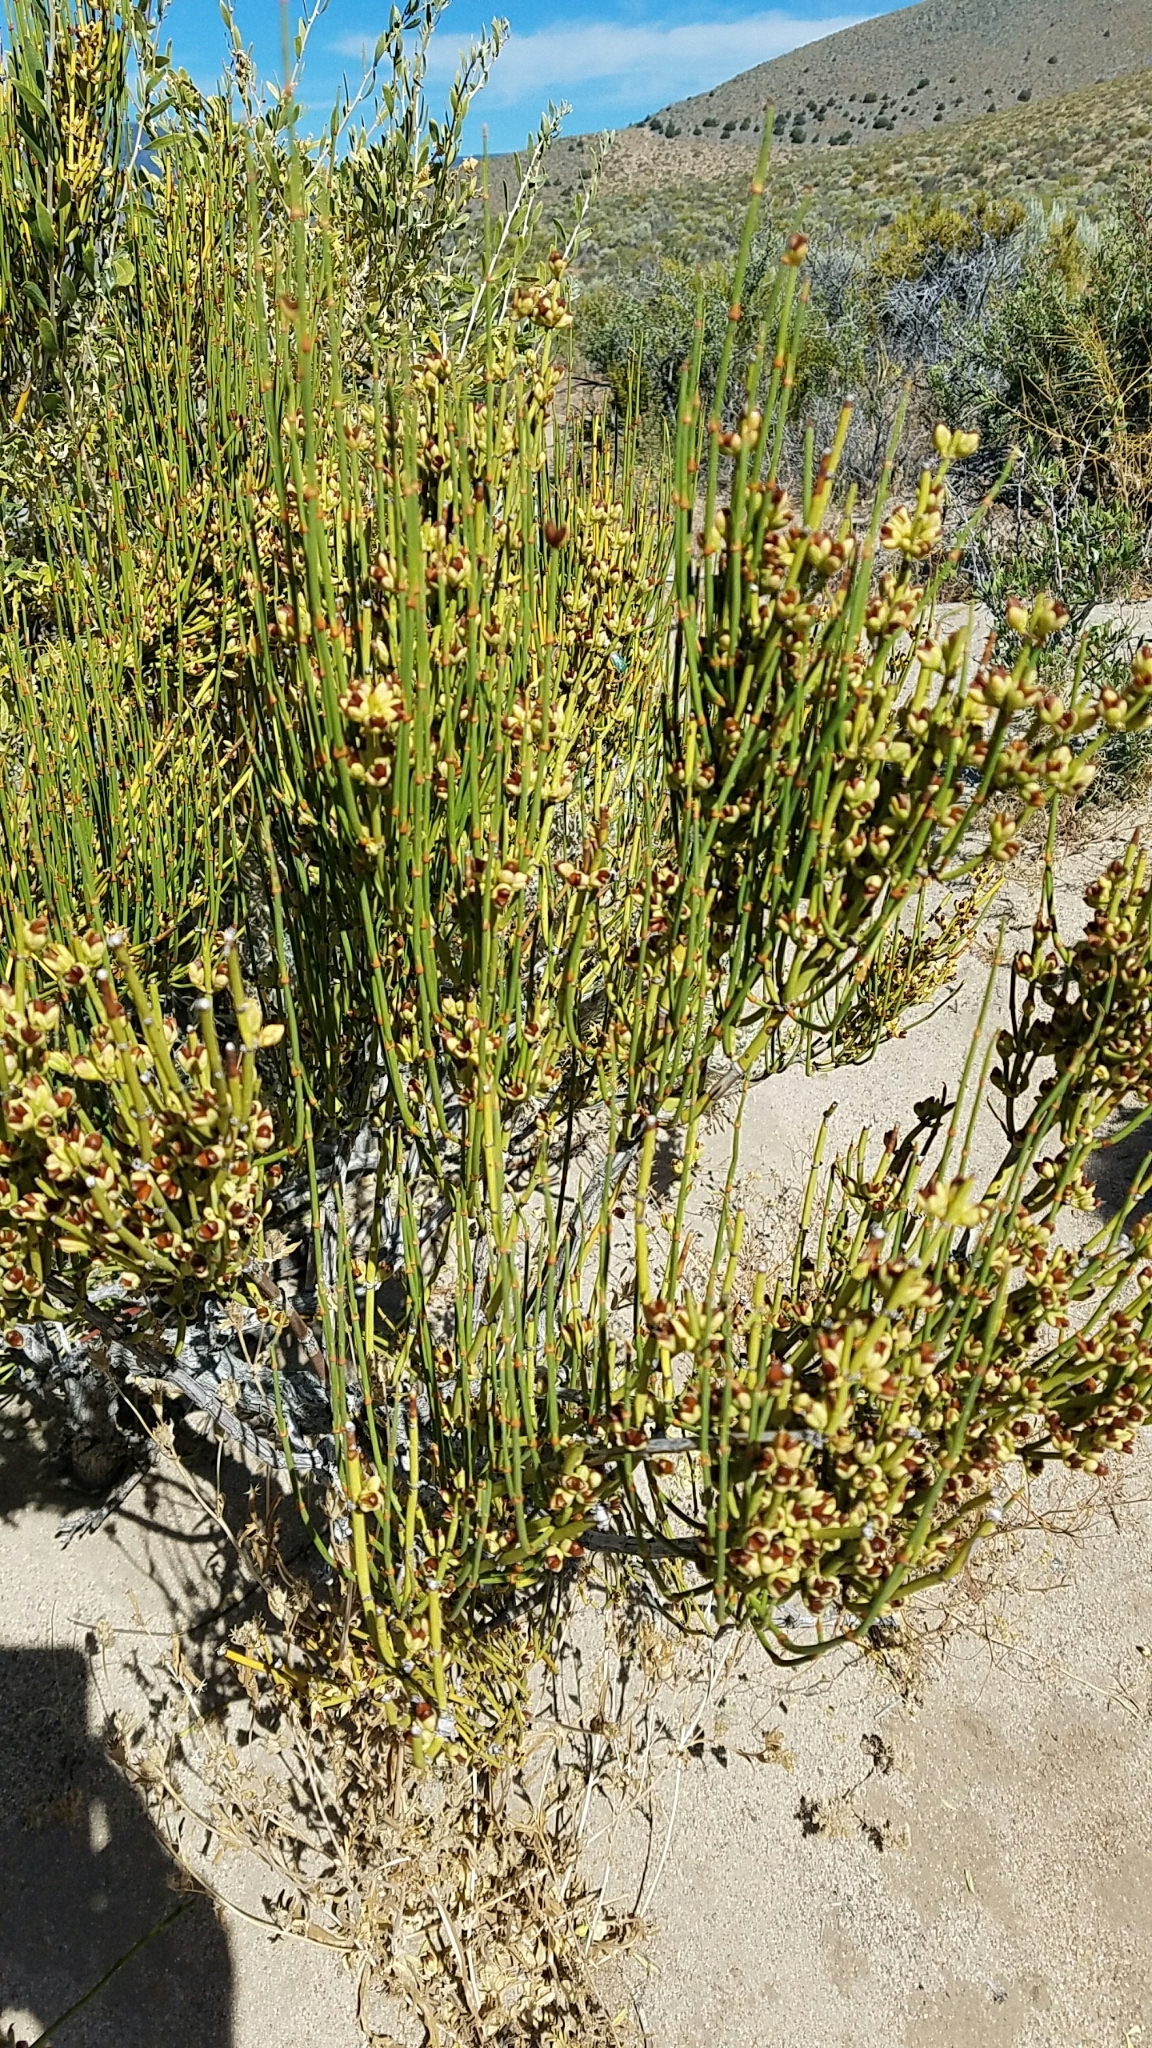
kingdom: Plantae
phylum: Tracheophyta
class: Gnetopsida
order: Ephedrales
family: Ephedraceae
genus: Ephedra
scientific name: Ephedra viridis
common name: Green ephedra
